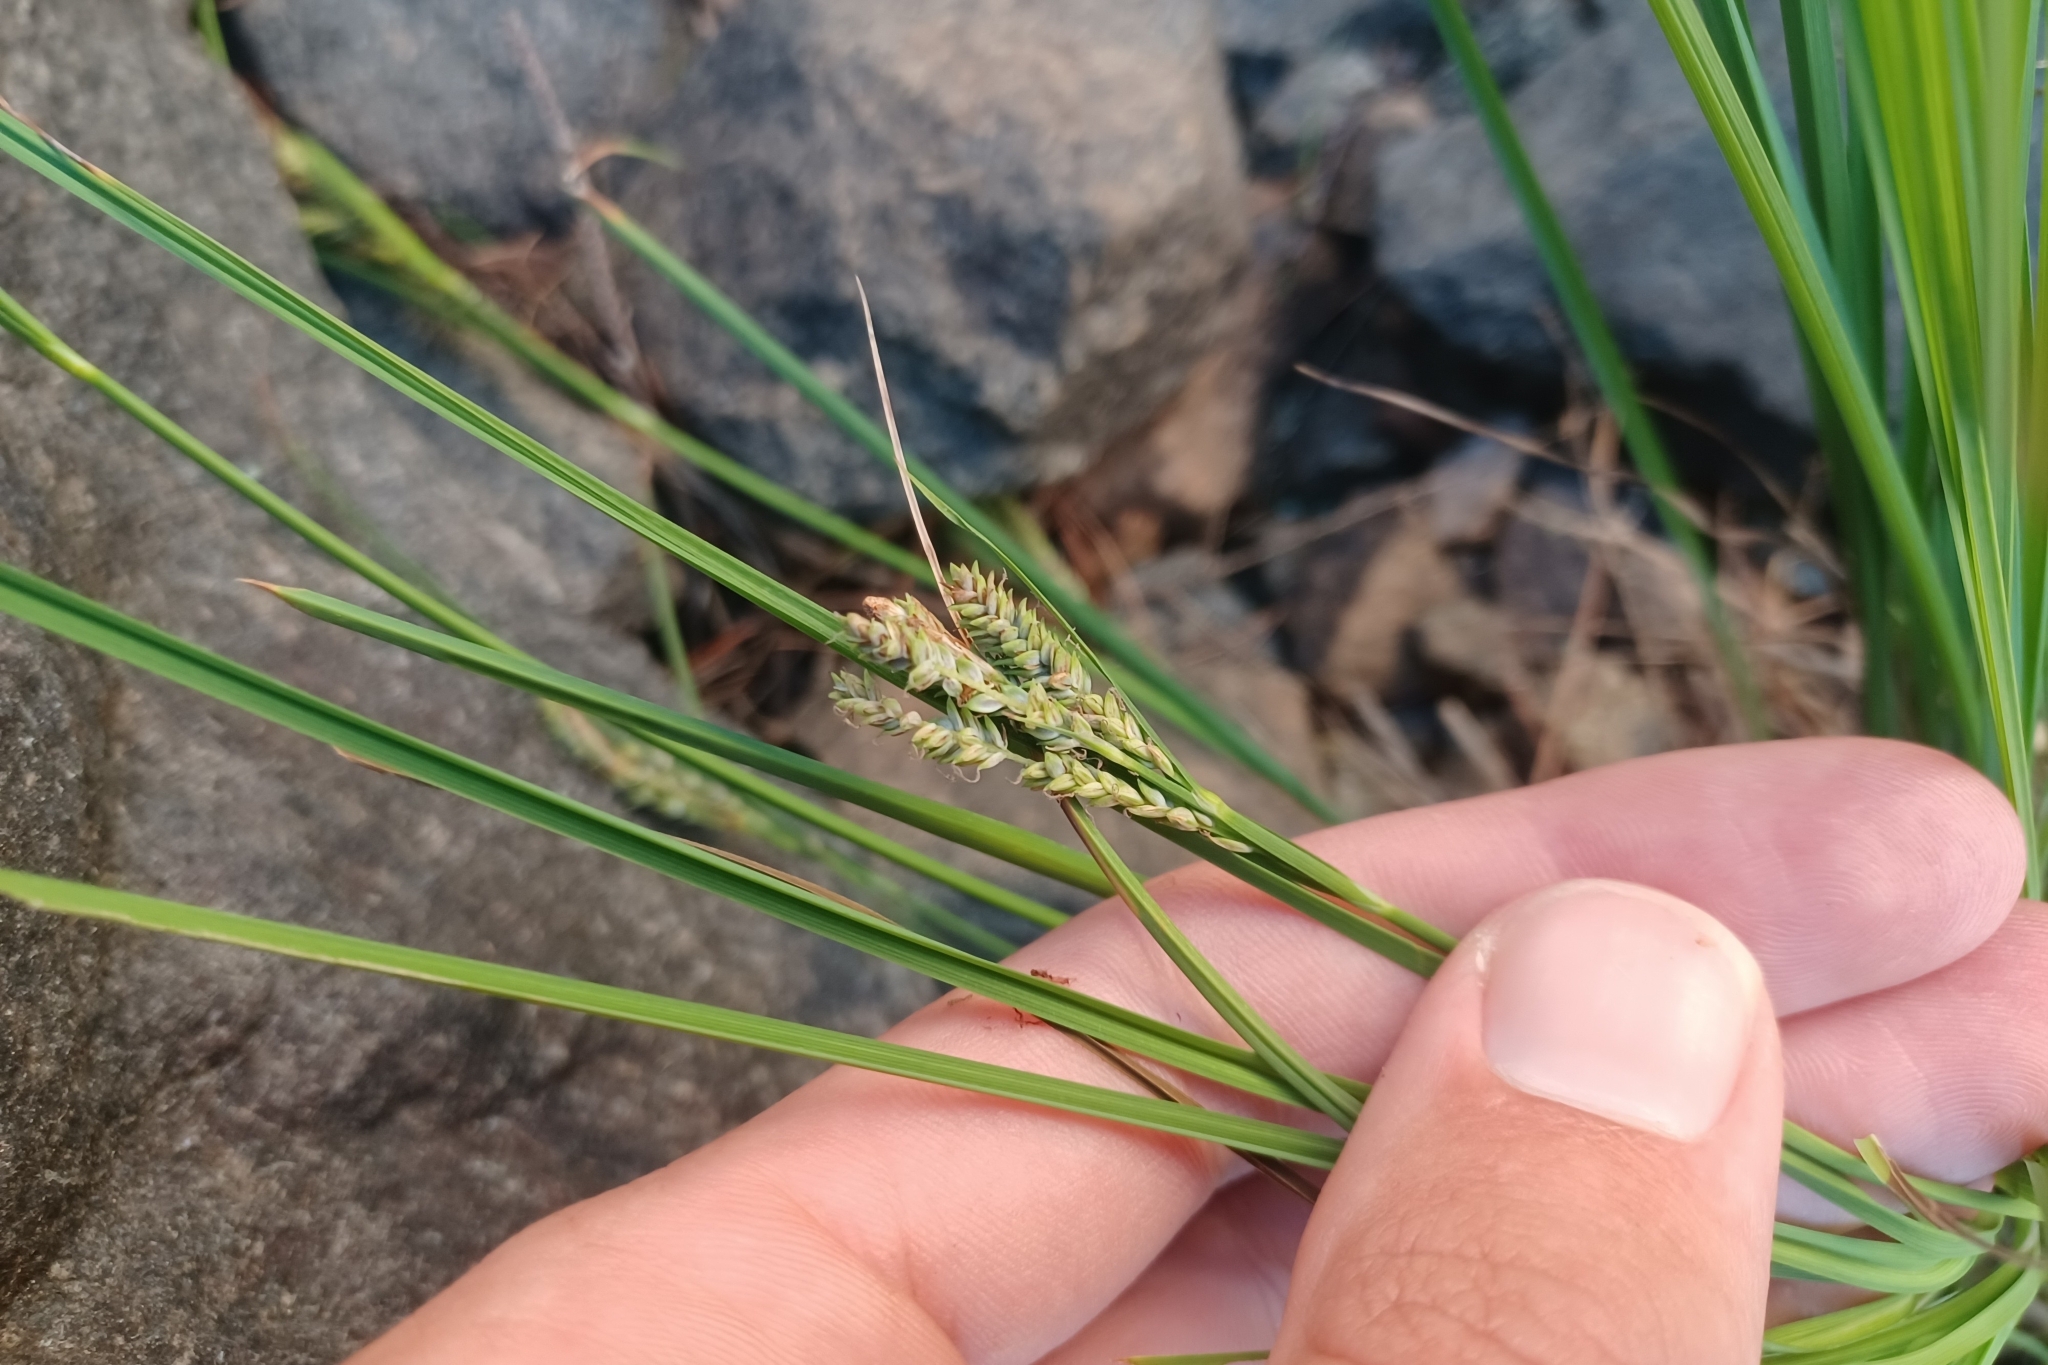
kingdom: Plantae
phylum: Tracheophyta
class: Liliopsida
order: Poales
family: Cyperaceae
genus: Carex
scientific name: Carex lenticularis
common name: Lakeshore sedge
